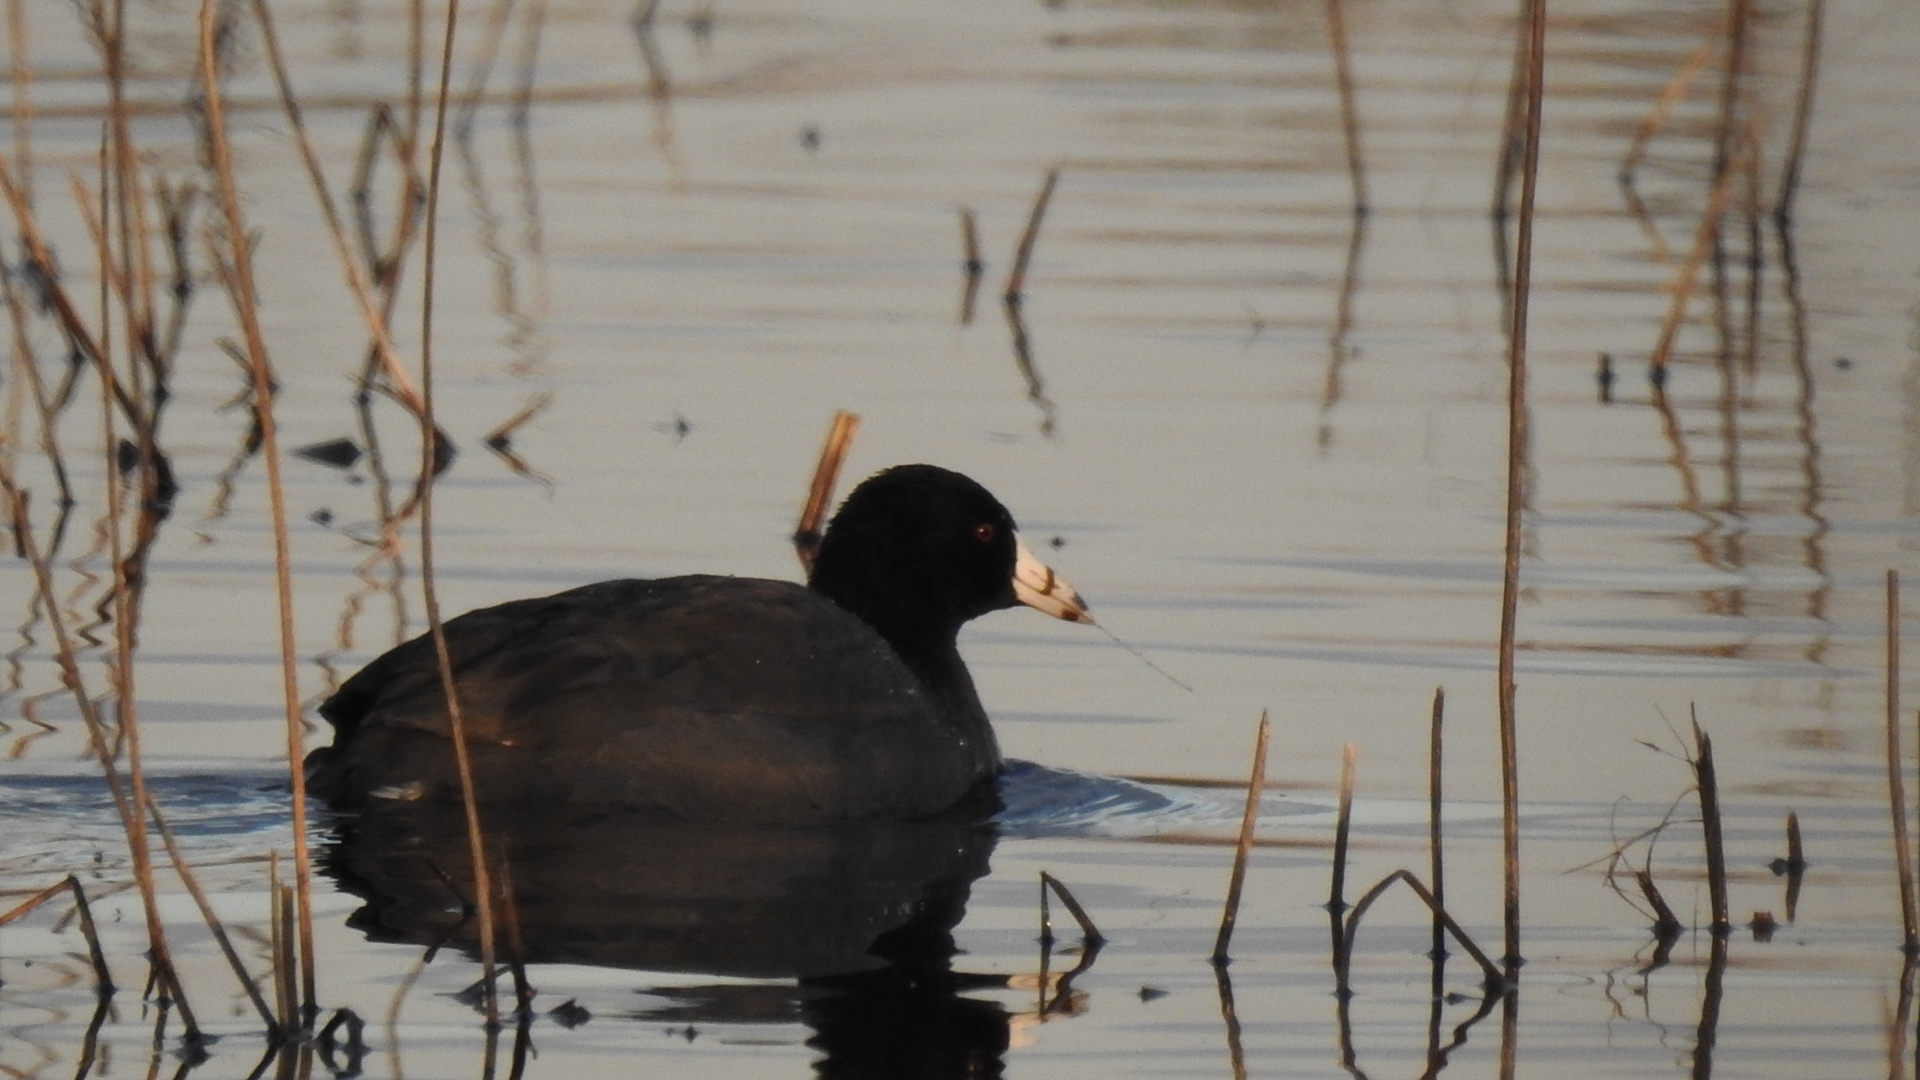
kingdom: Animalia
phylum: Chordata
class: Aves
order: Gruiformes
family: Rallidae
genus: Fulica
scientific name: Fulica americana
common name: American coot
